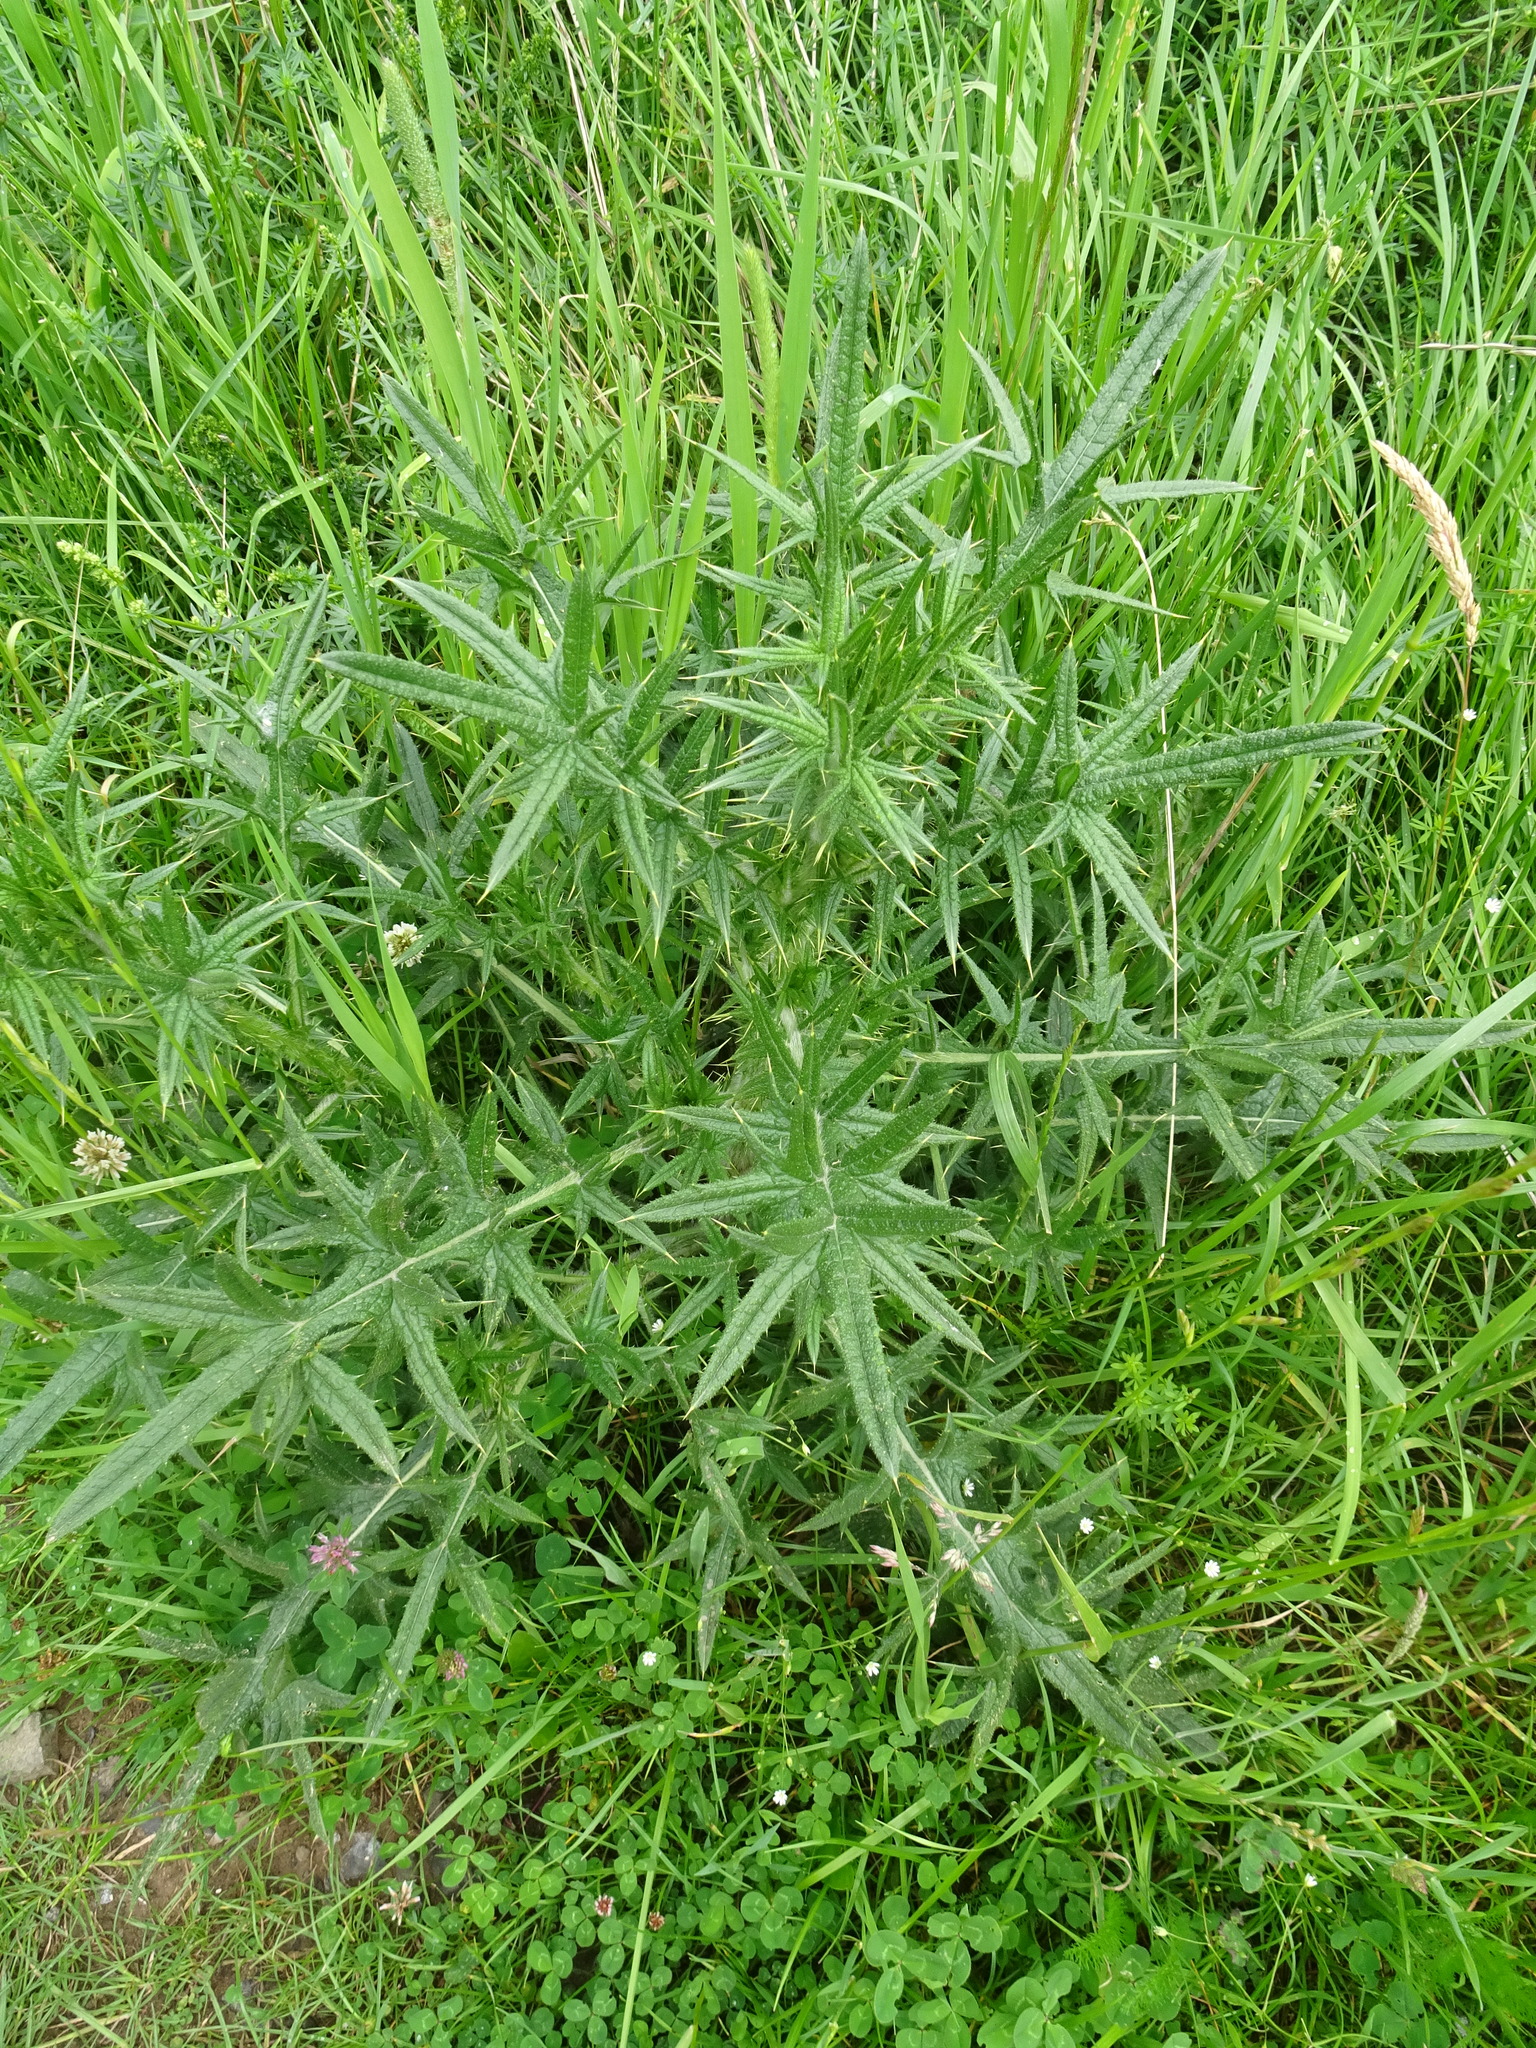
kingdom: Plantae
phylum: Tracheophyta
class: Magnoliopsida
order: Asterales
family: Asteraceae
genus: Cirsium
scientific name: Cirsium vulgare
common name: Bull thistle
